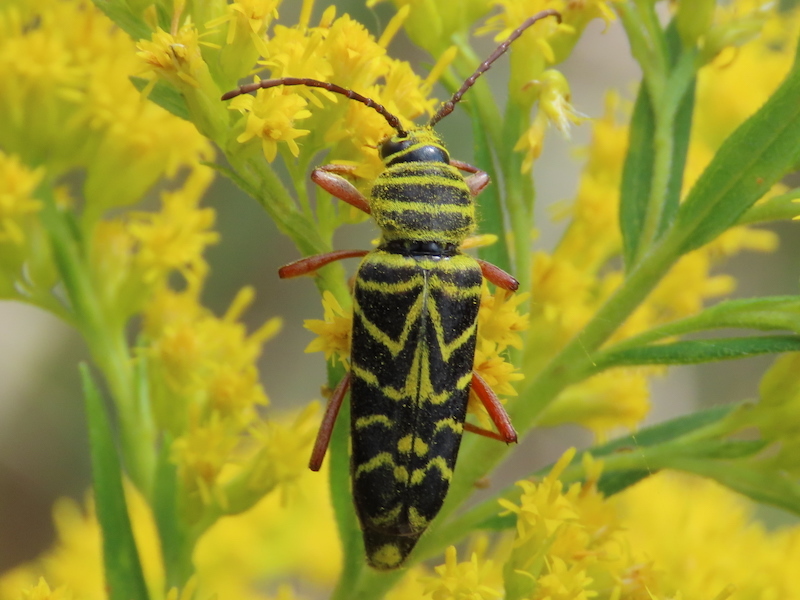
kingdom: Animalia
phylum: Arthropoda
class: Insecta
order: Coleoptera
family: Cerambycidae
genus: Megacyllene
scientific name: Megacyllene robiniae
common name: Locust borer
